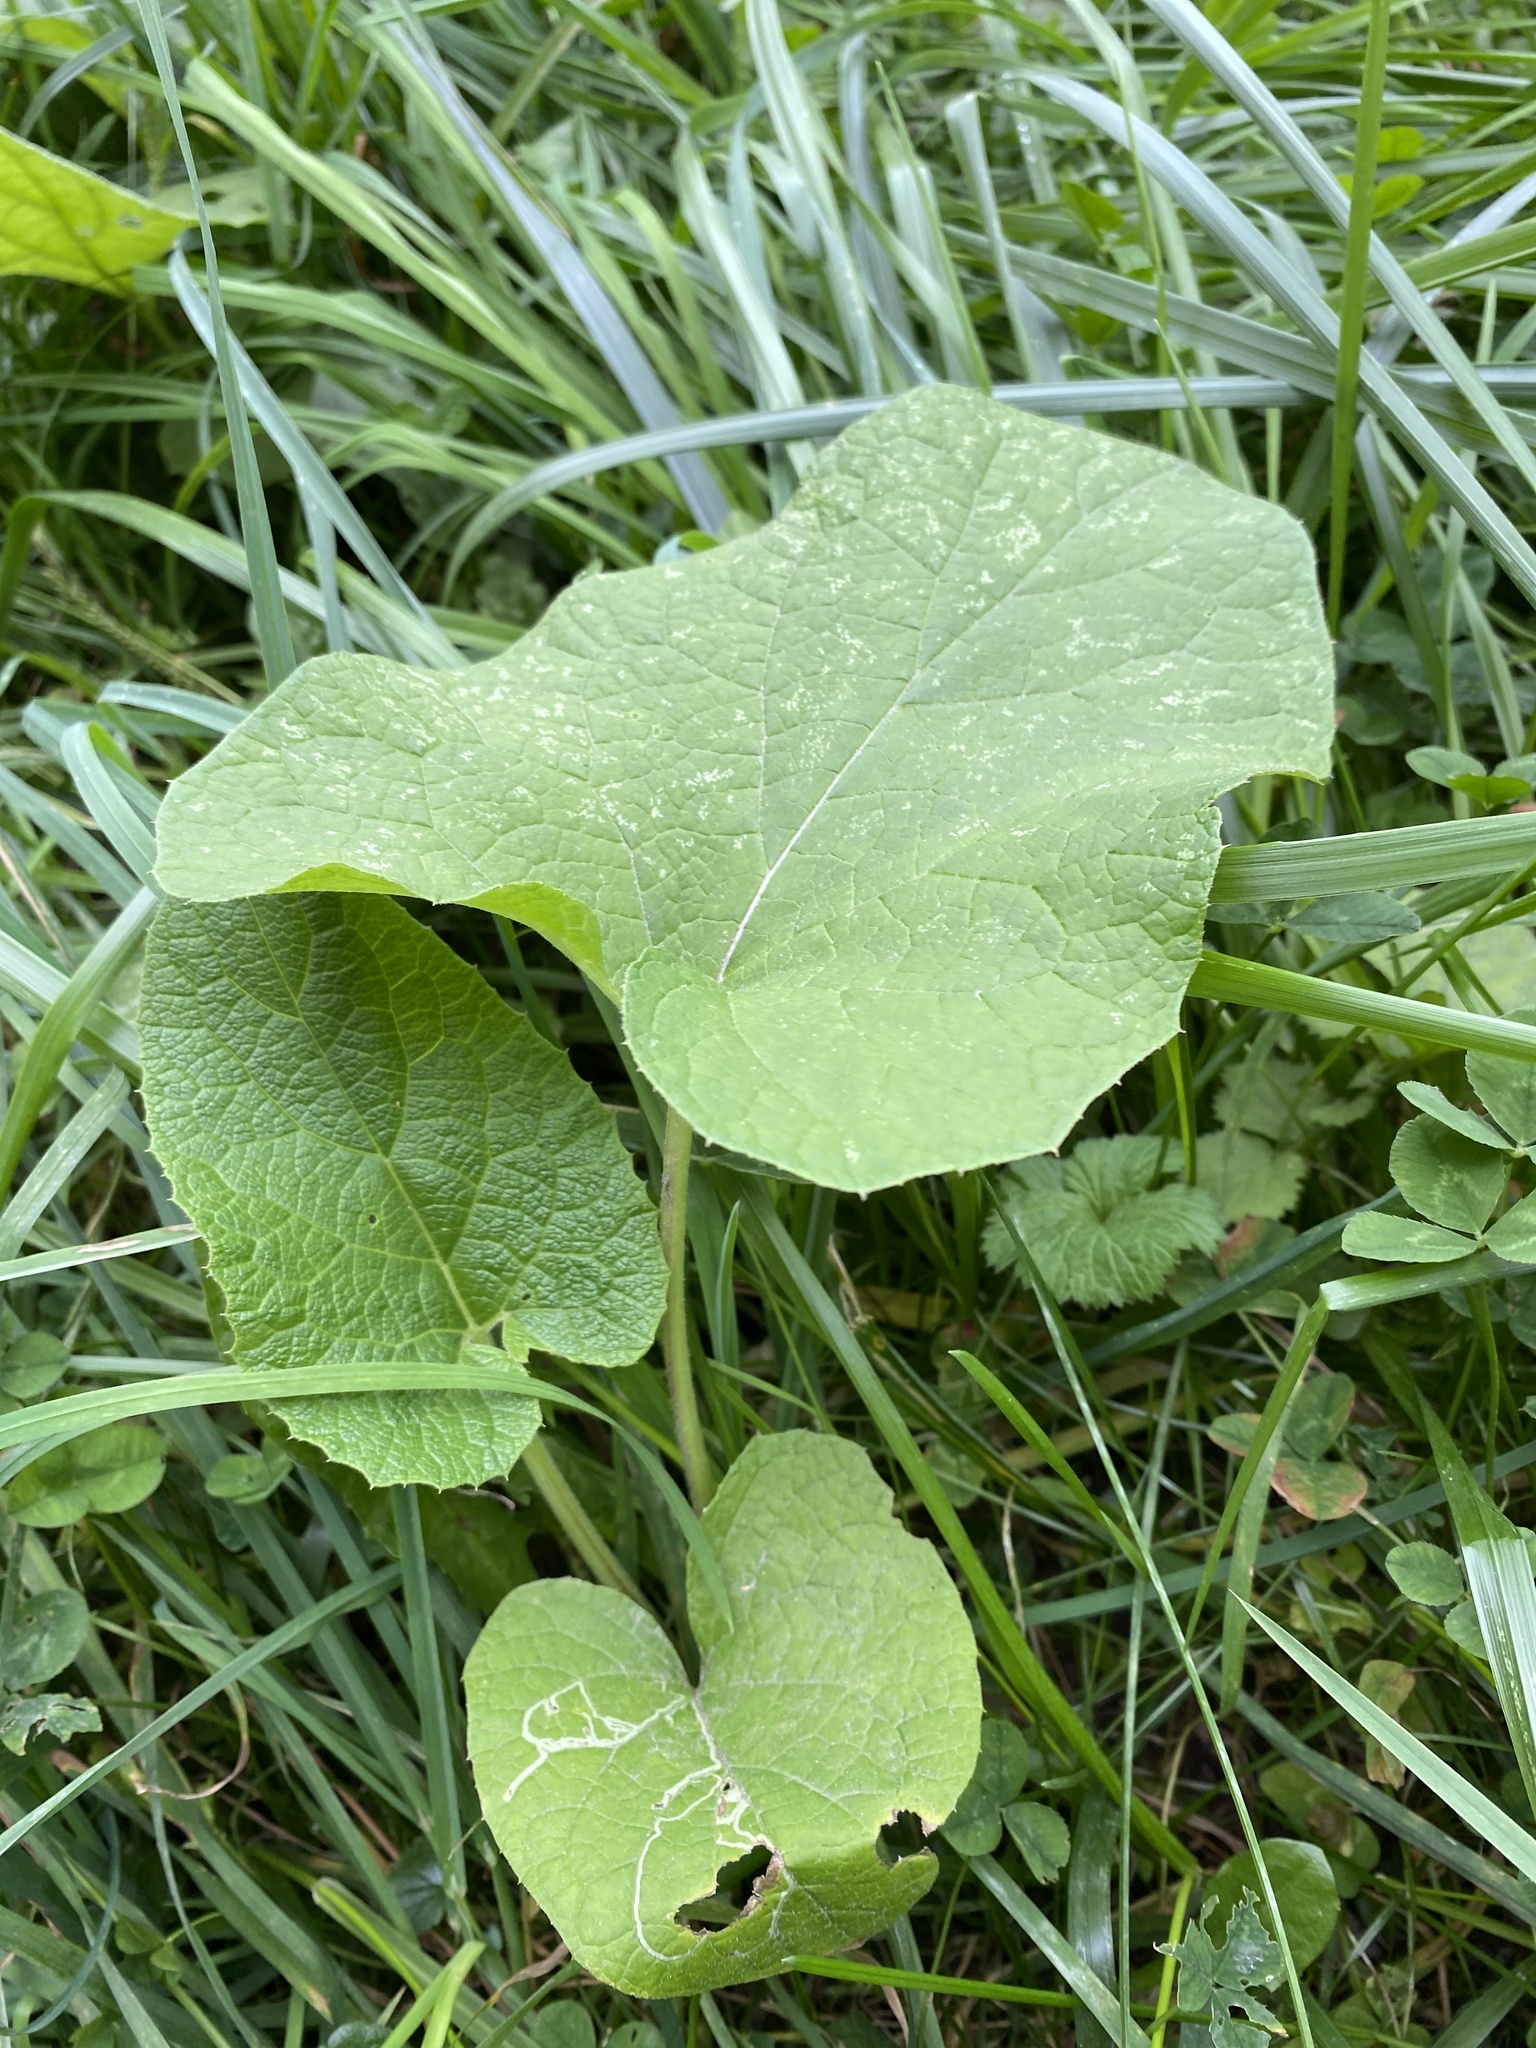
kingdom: Plantae
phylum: Tracheophyta
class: Magnoliopsida
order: Asterales
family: Asteraceae
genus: Arctium
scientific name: Arctium
